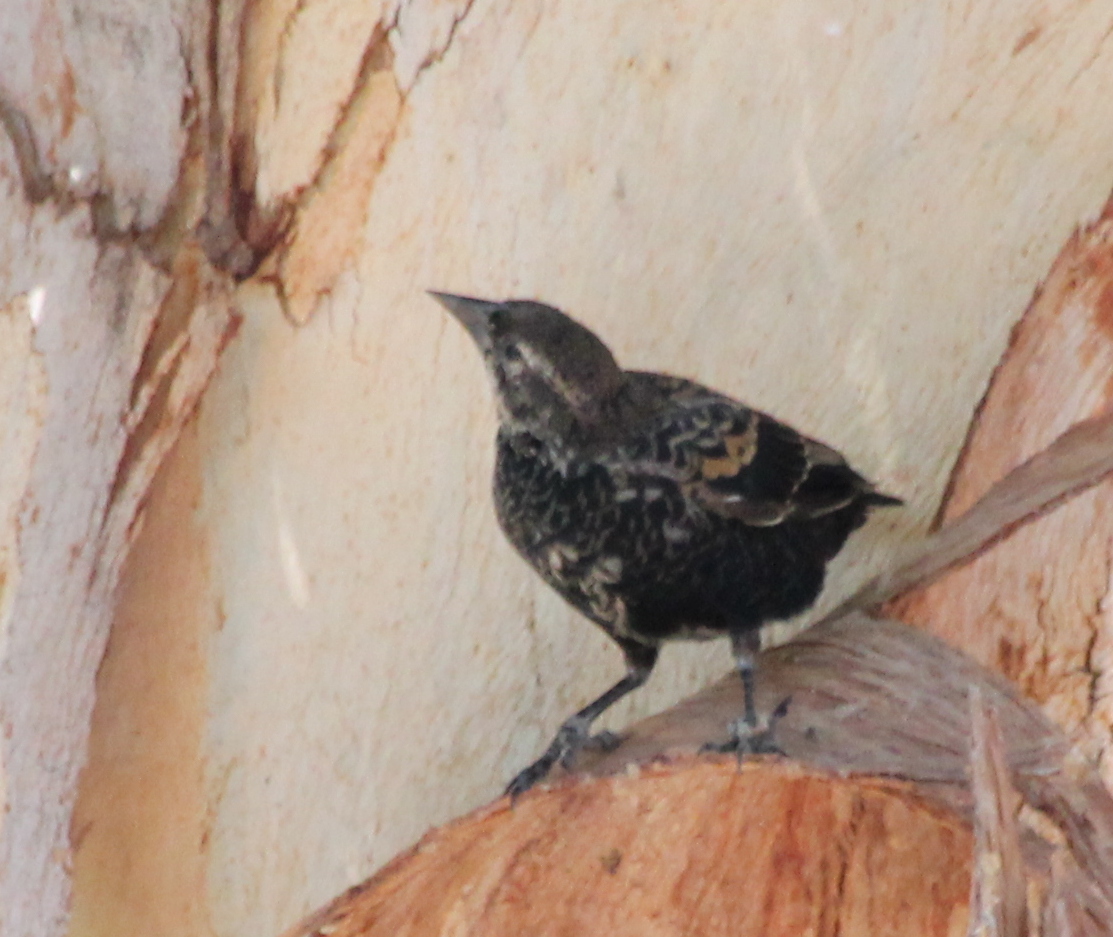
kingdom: Animalia
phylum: Chordata
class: Aves
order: Passeriformes
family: Icteridae
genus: Agelaius
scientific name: Agelaius phoeniceus
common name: Red-winged blackbird
